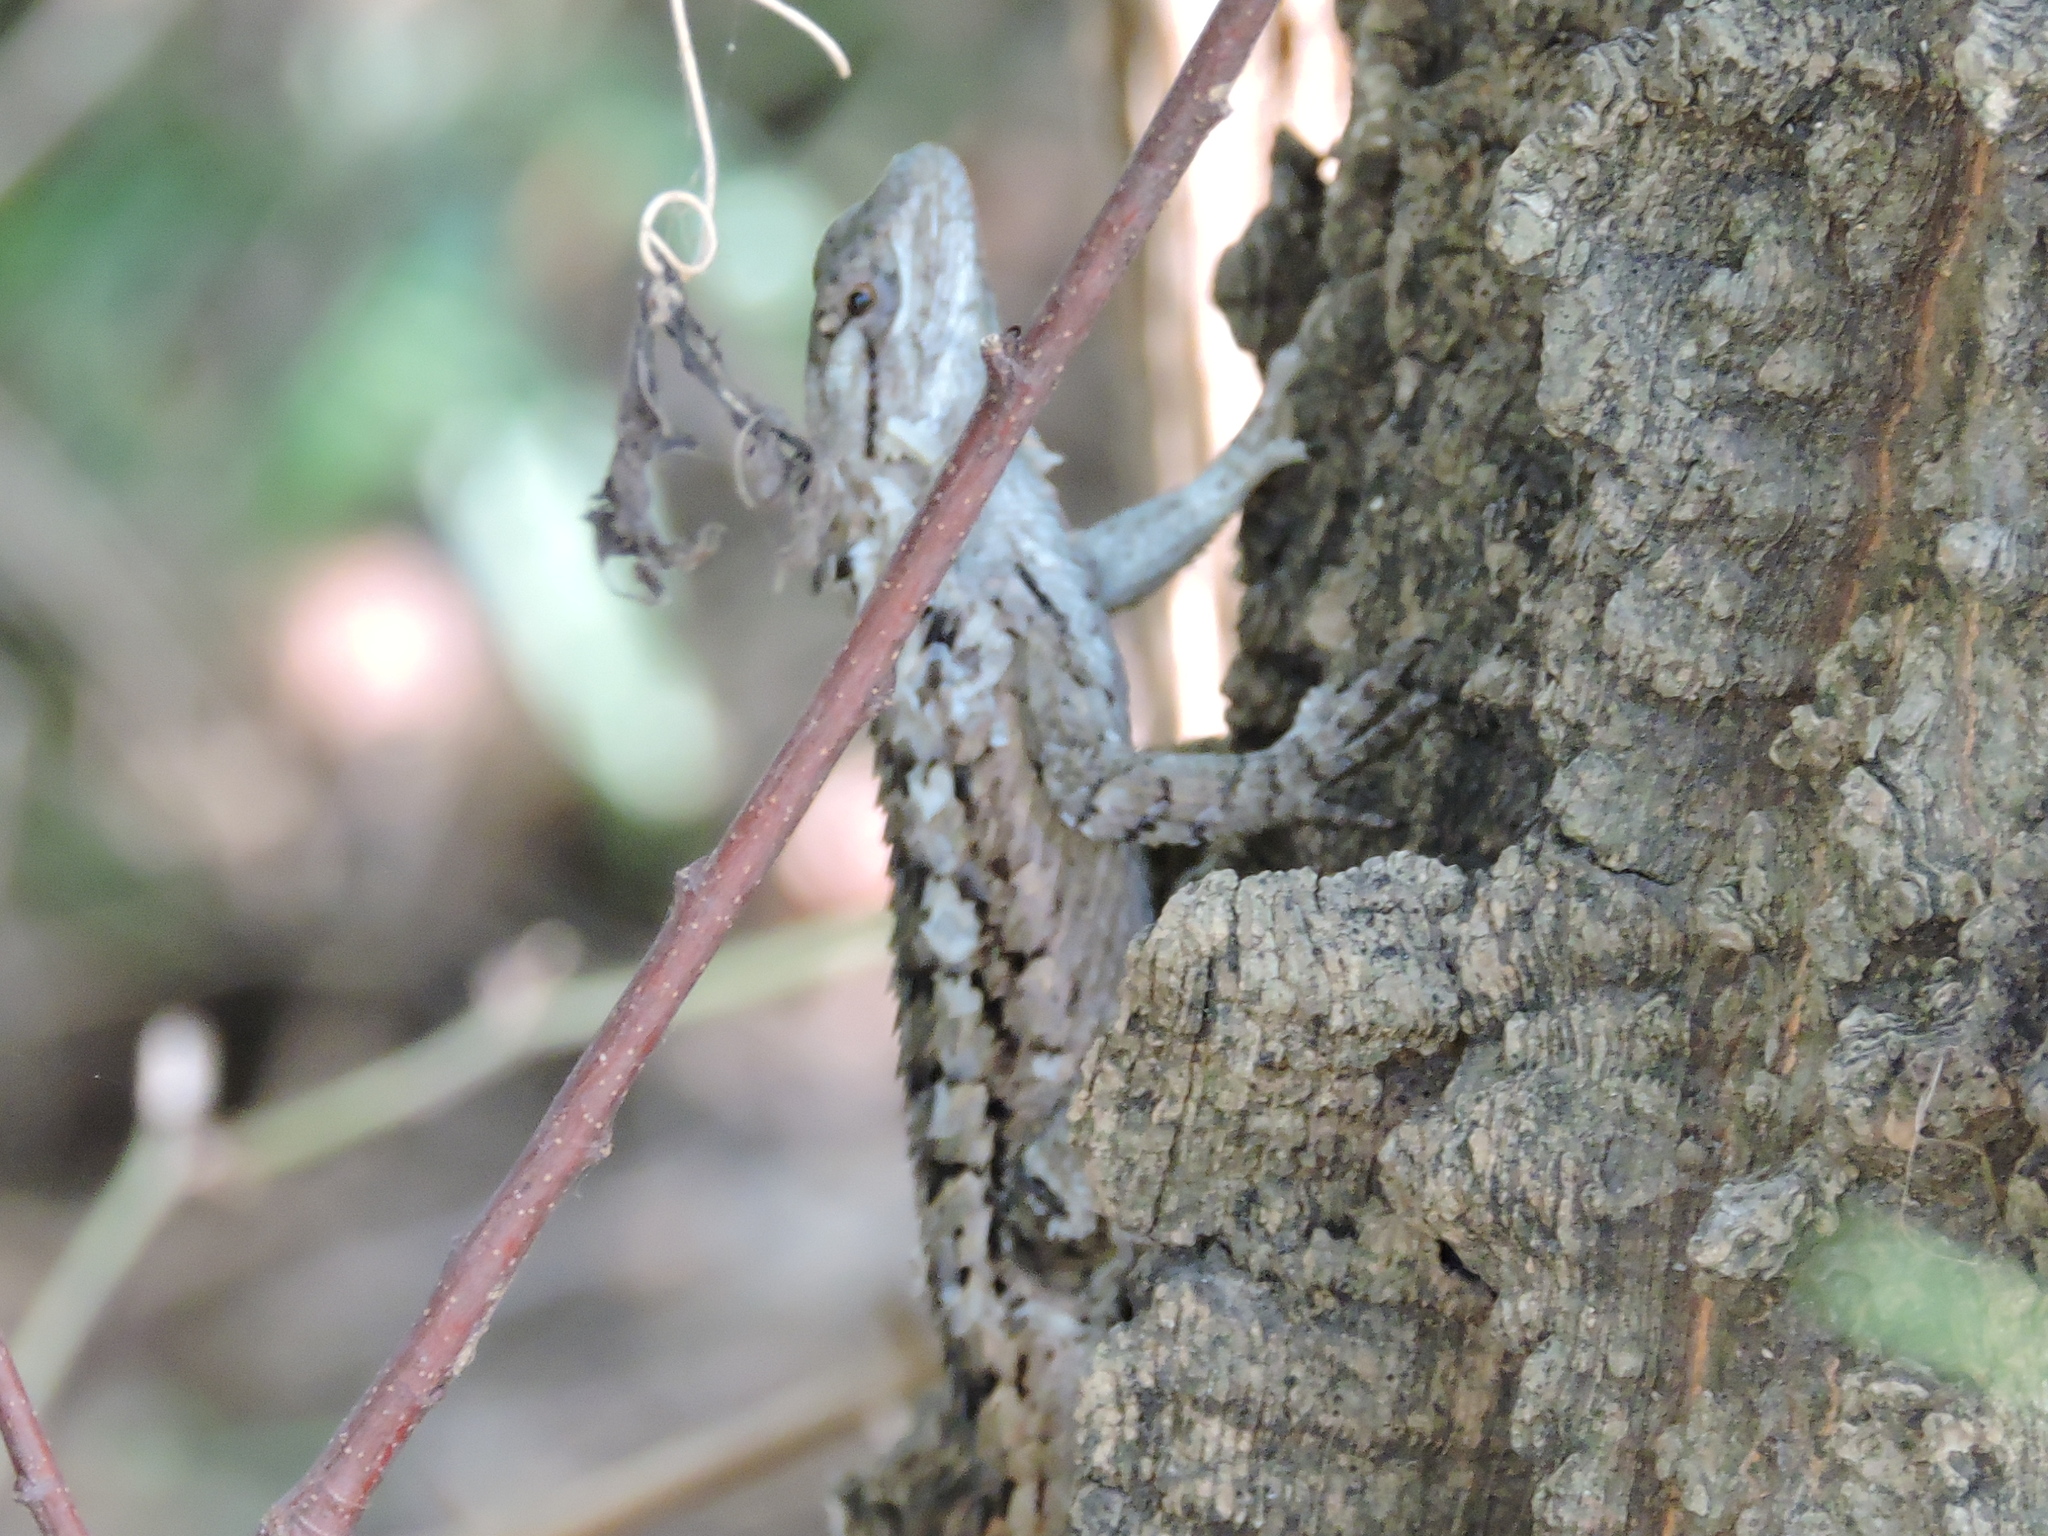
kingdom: Animalia
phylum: Chordata
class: Squamata
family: Phrynosomatidae
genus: Sceloporus
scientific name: Sceloporus olivaceus
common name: Texas spiny lizard
